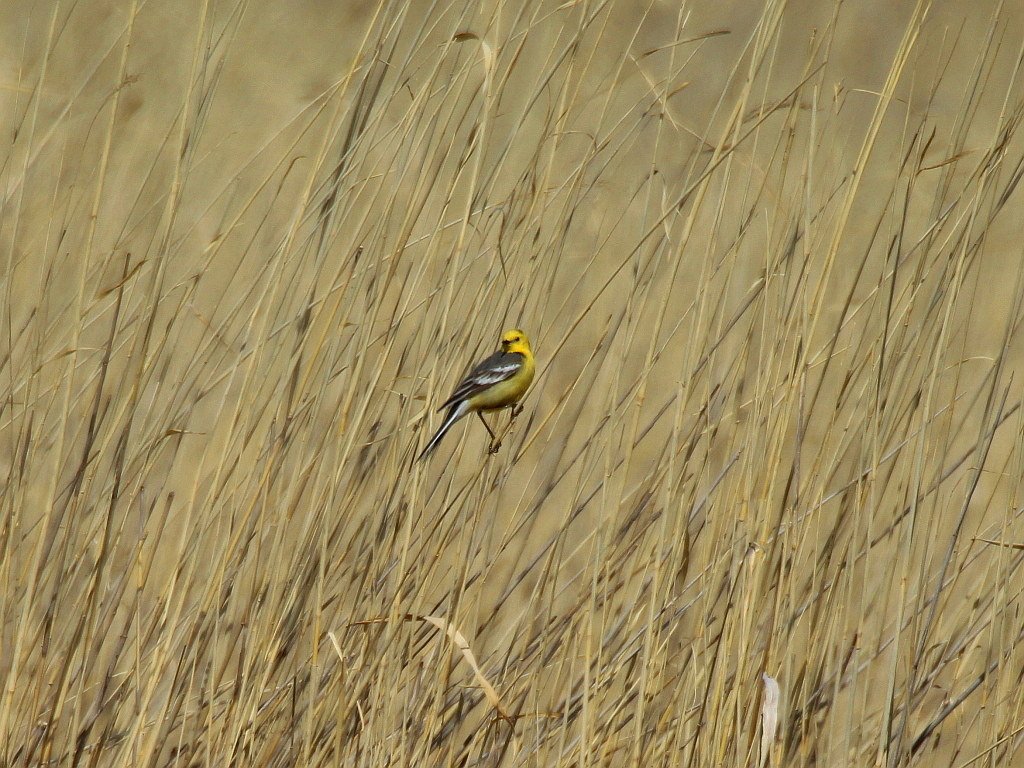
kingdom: Animalia
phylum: Chordata
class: Aves
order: Passeriformes
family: Motacillidae
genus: Motacilla
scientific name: Motacilla citreola
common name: Citrine wagtail
